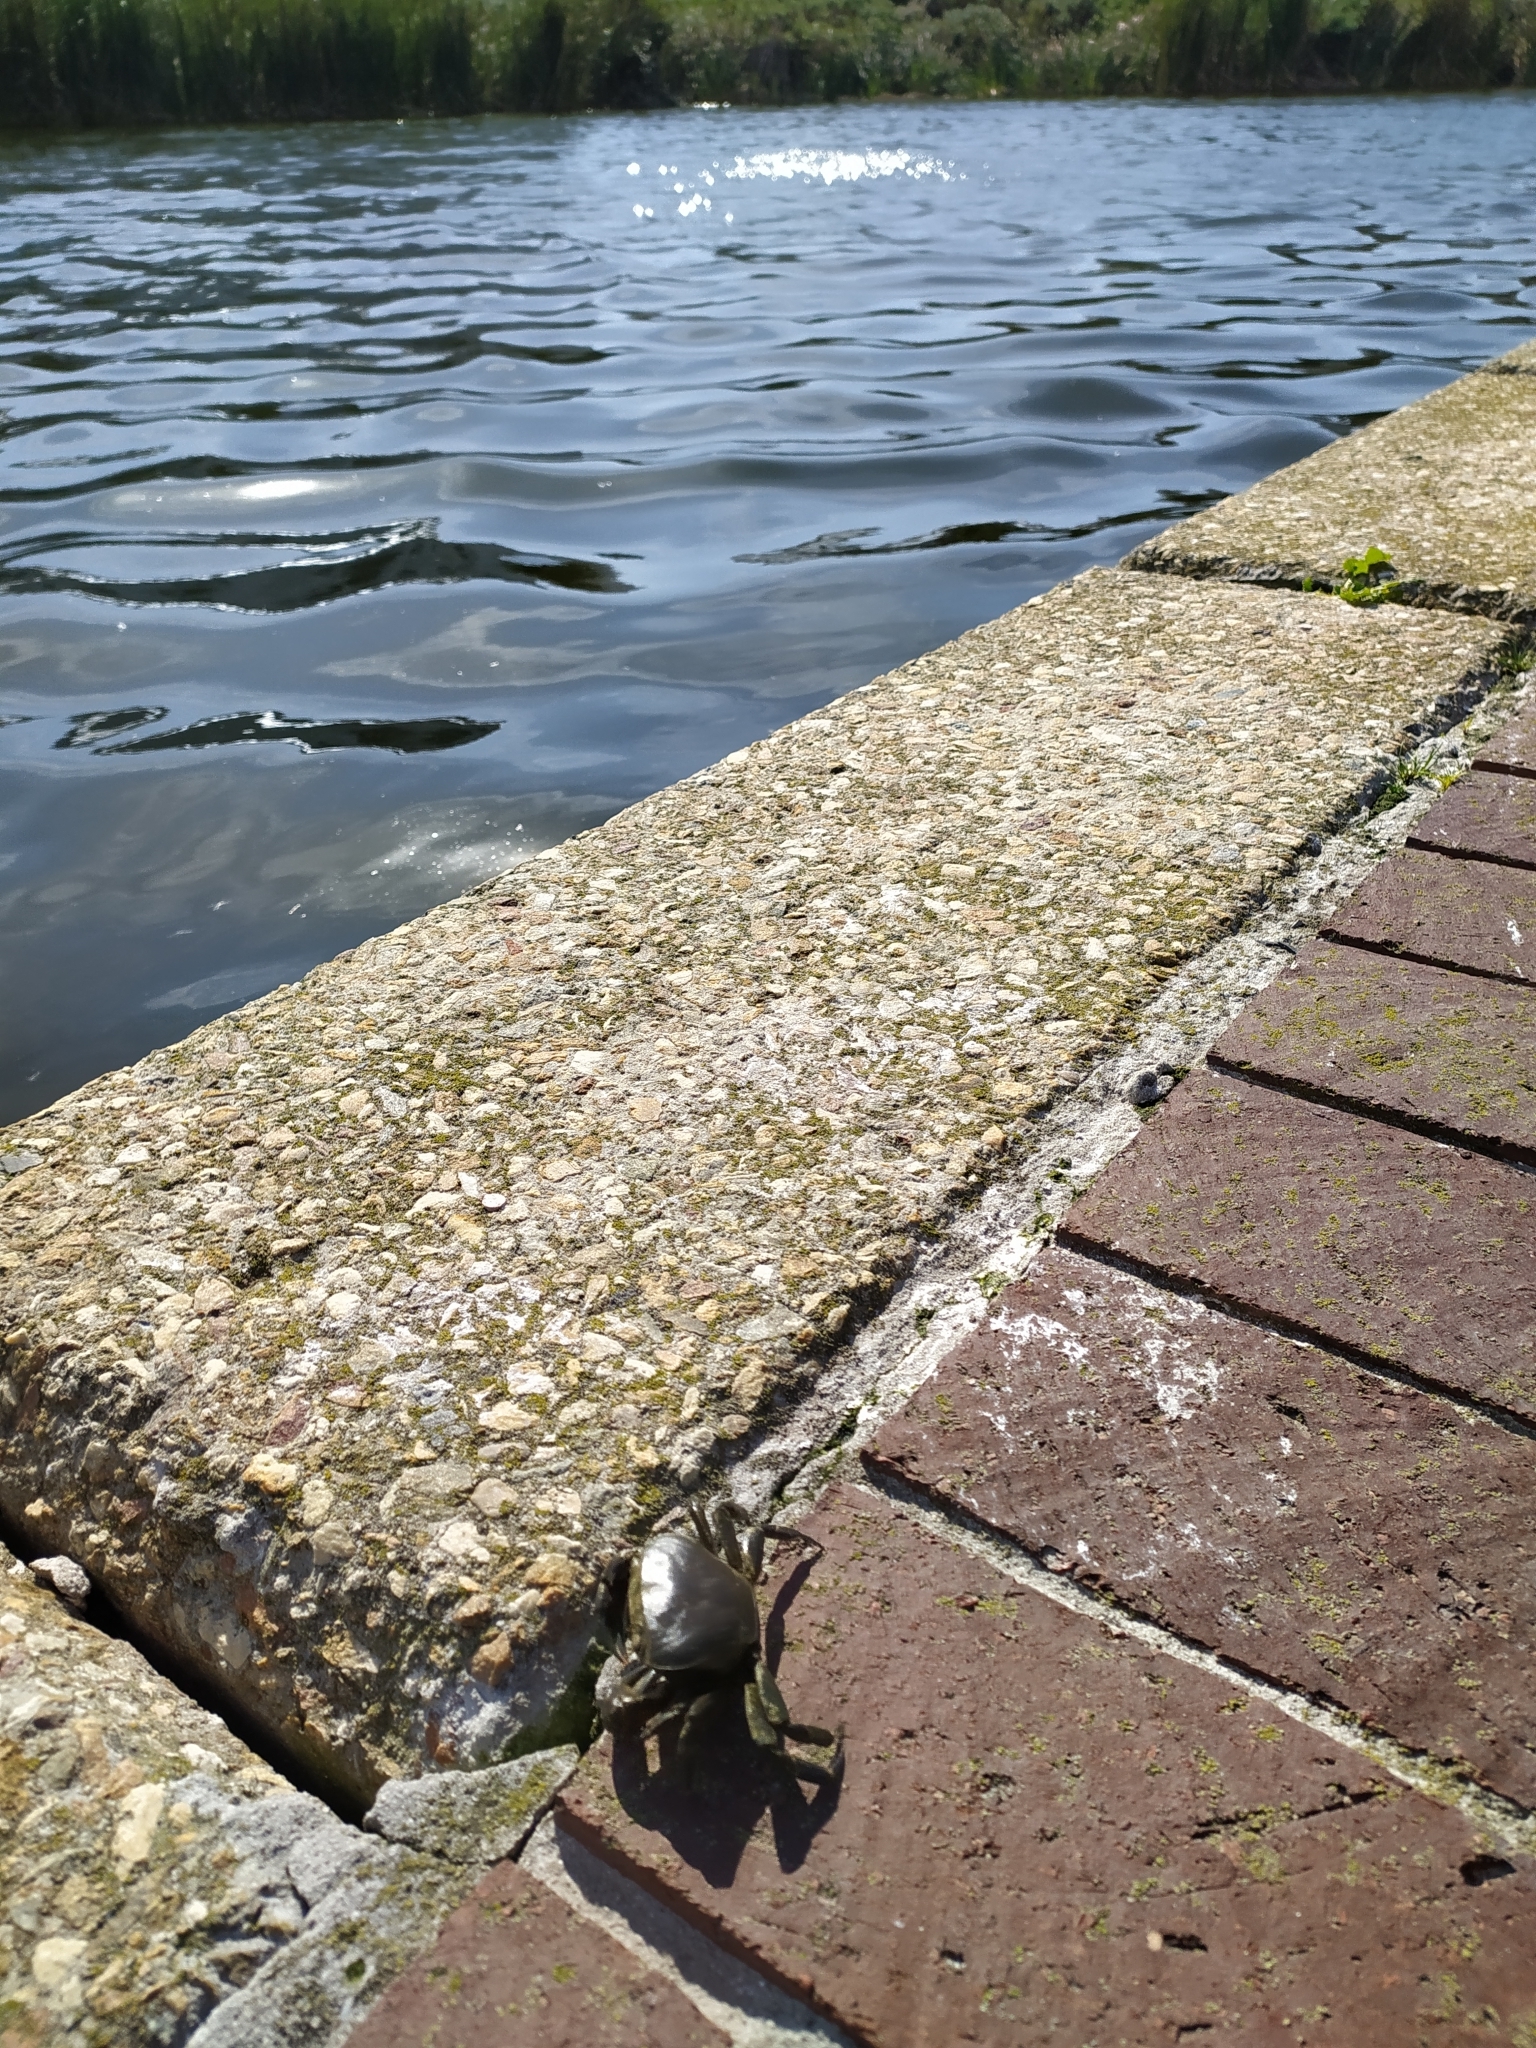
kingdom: Animalia
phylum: Arthropoda
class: Malacostraca
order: Decapoda
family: Potamonautidae
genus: Potamonautes
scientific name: Potamonautes perlatus
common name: Cape river crab
